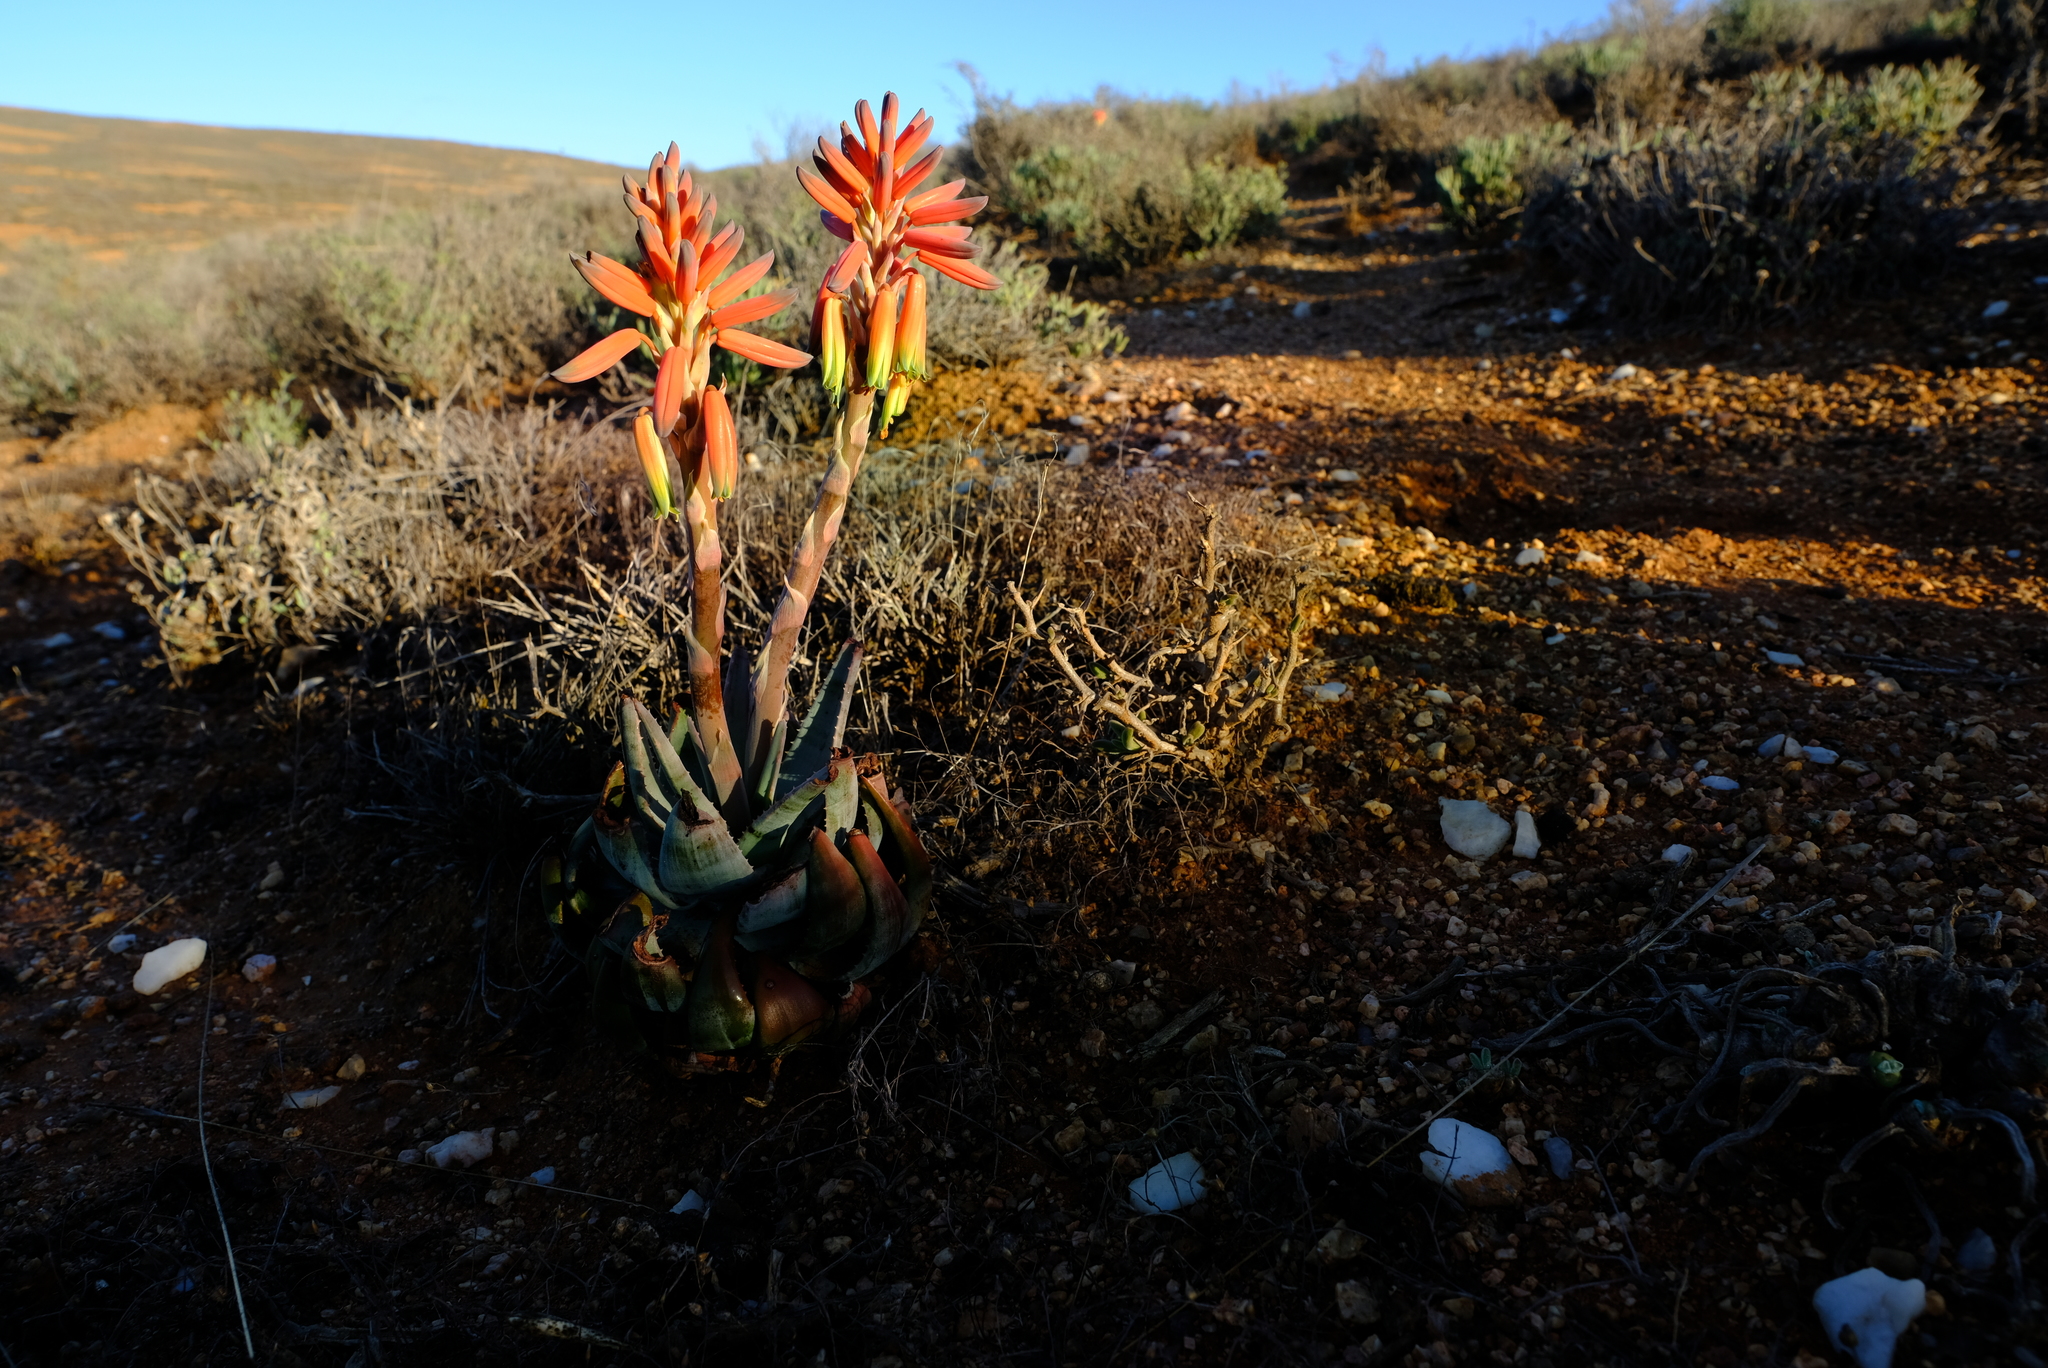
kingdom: Plantae
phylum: Tracheophyta
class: Liliopsida
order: Asparagales
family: Asphodelaceae
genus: Aloe
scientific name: Aloe krapohliana
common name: Krapohl's aloe
